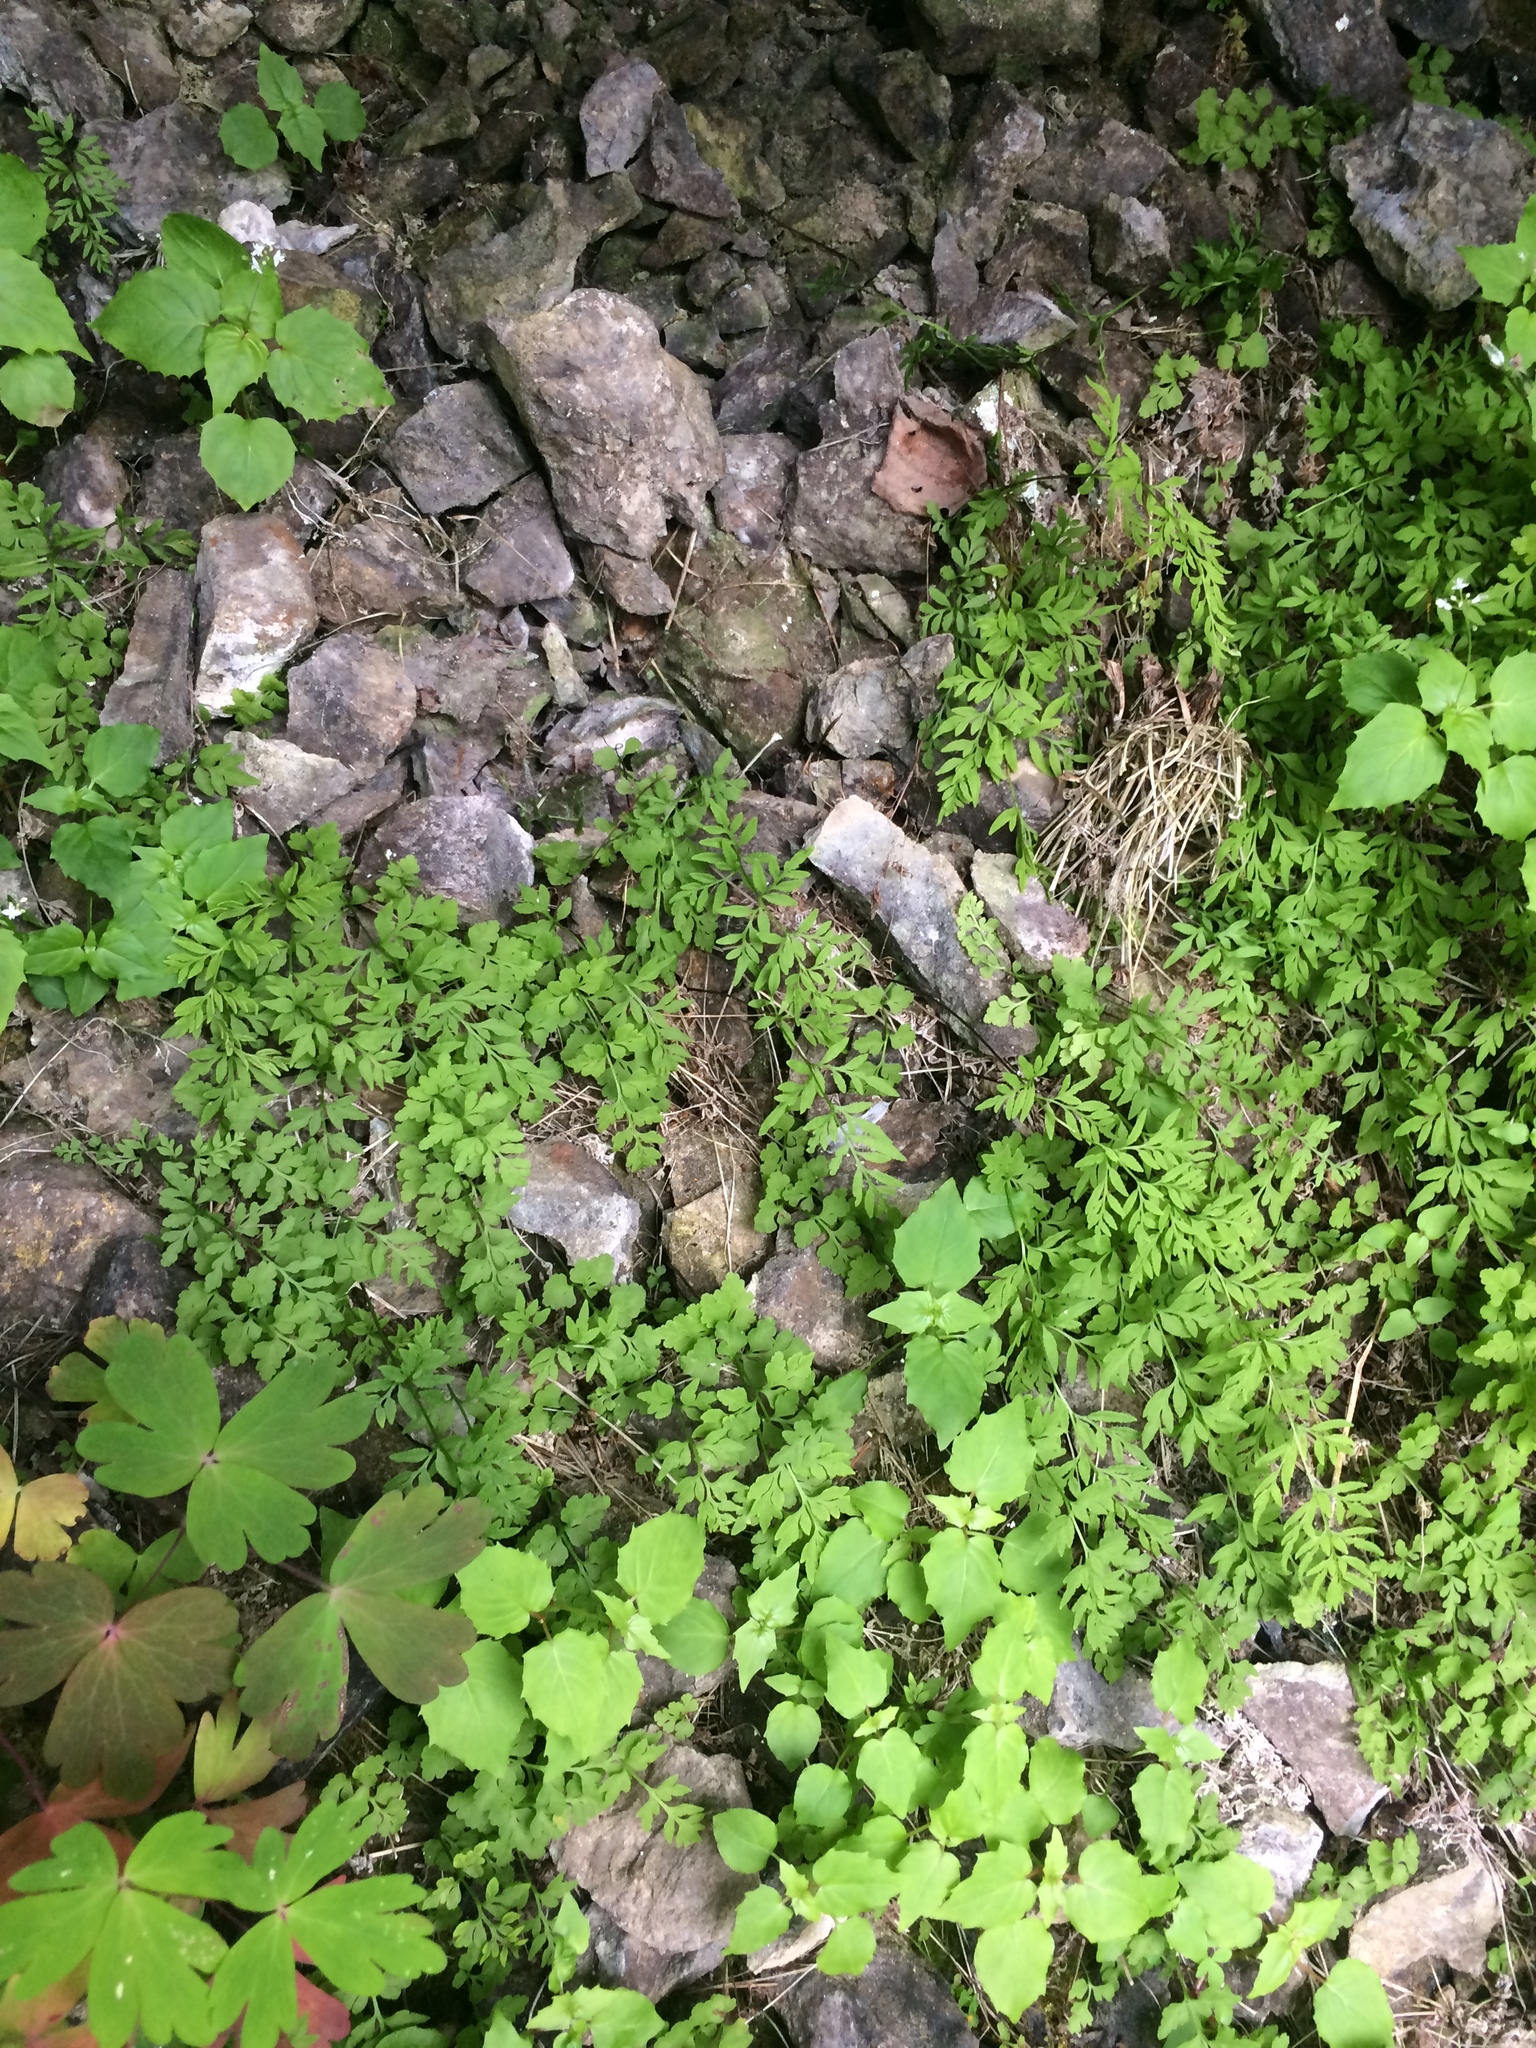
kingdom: Plantae
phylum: Tracheophyta
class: Polypodiopsida
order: Polypodiales
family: Pteridaceae
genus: Cryptogramma
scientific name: Cryptogramma stelleri
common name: Cliff-brake
